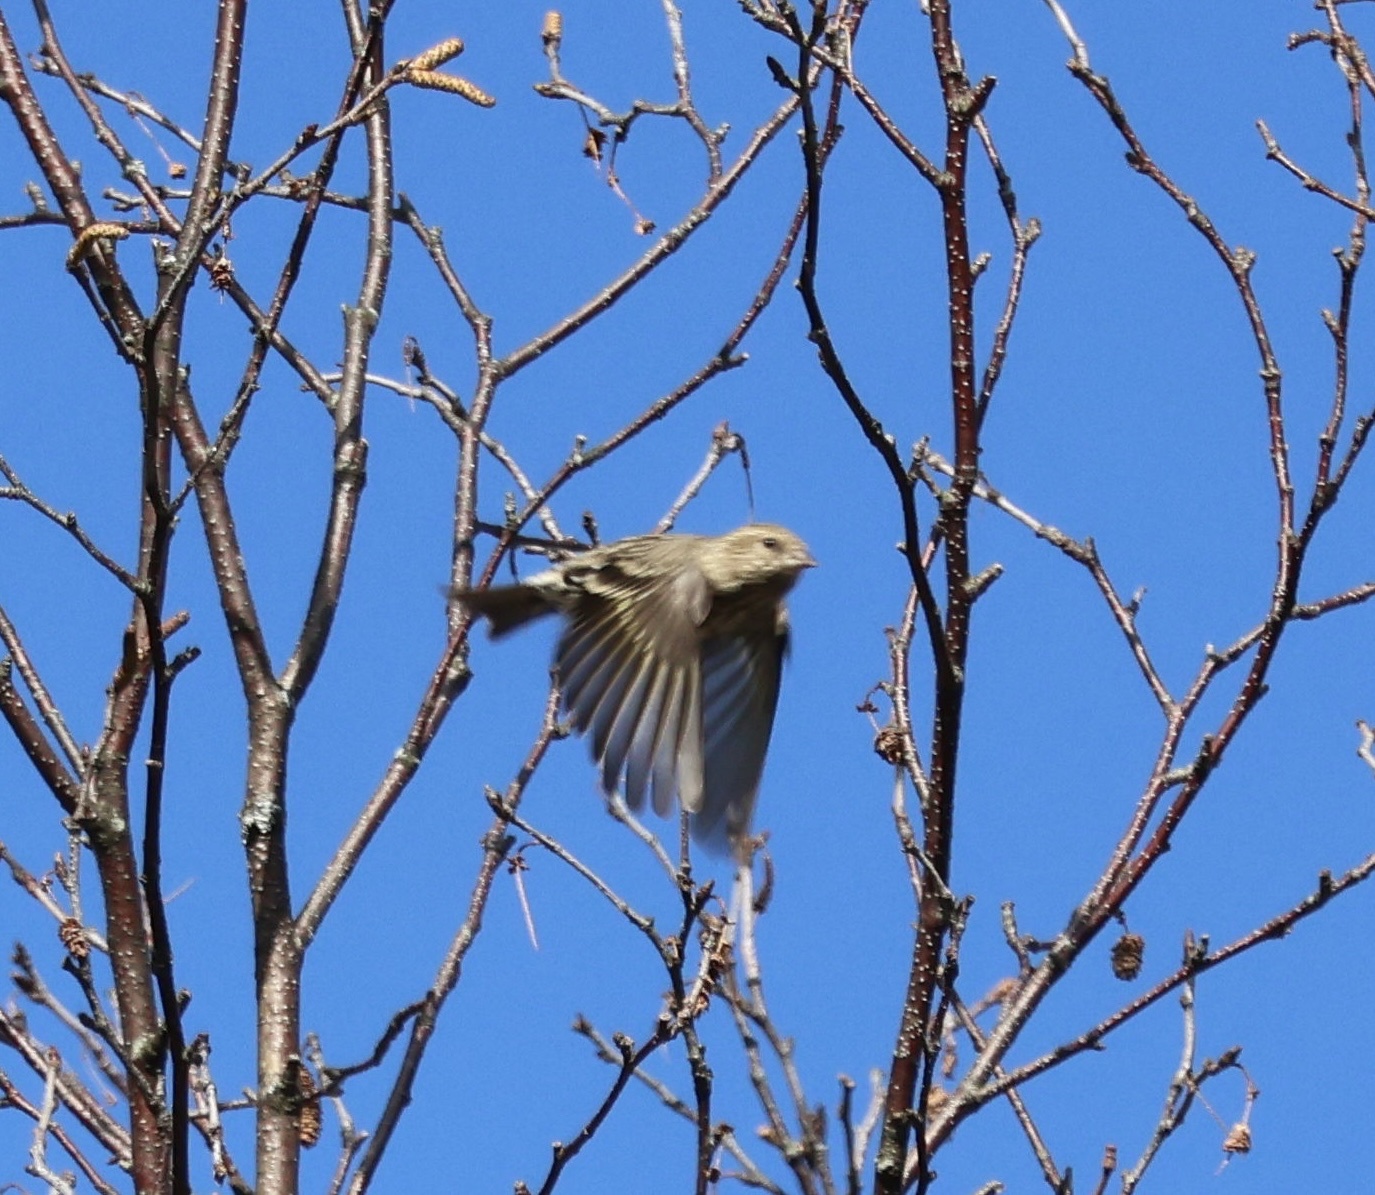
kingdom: Animalia
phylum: Chordata
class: Aves
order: Passeriformes
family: Fringillidae
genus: Spinus
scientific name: Spinus pinus
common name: Pine siskin
